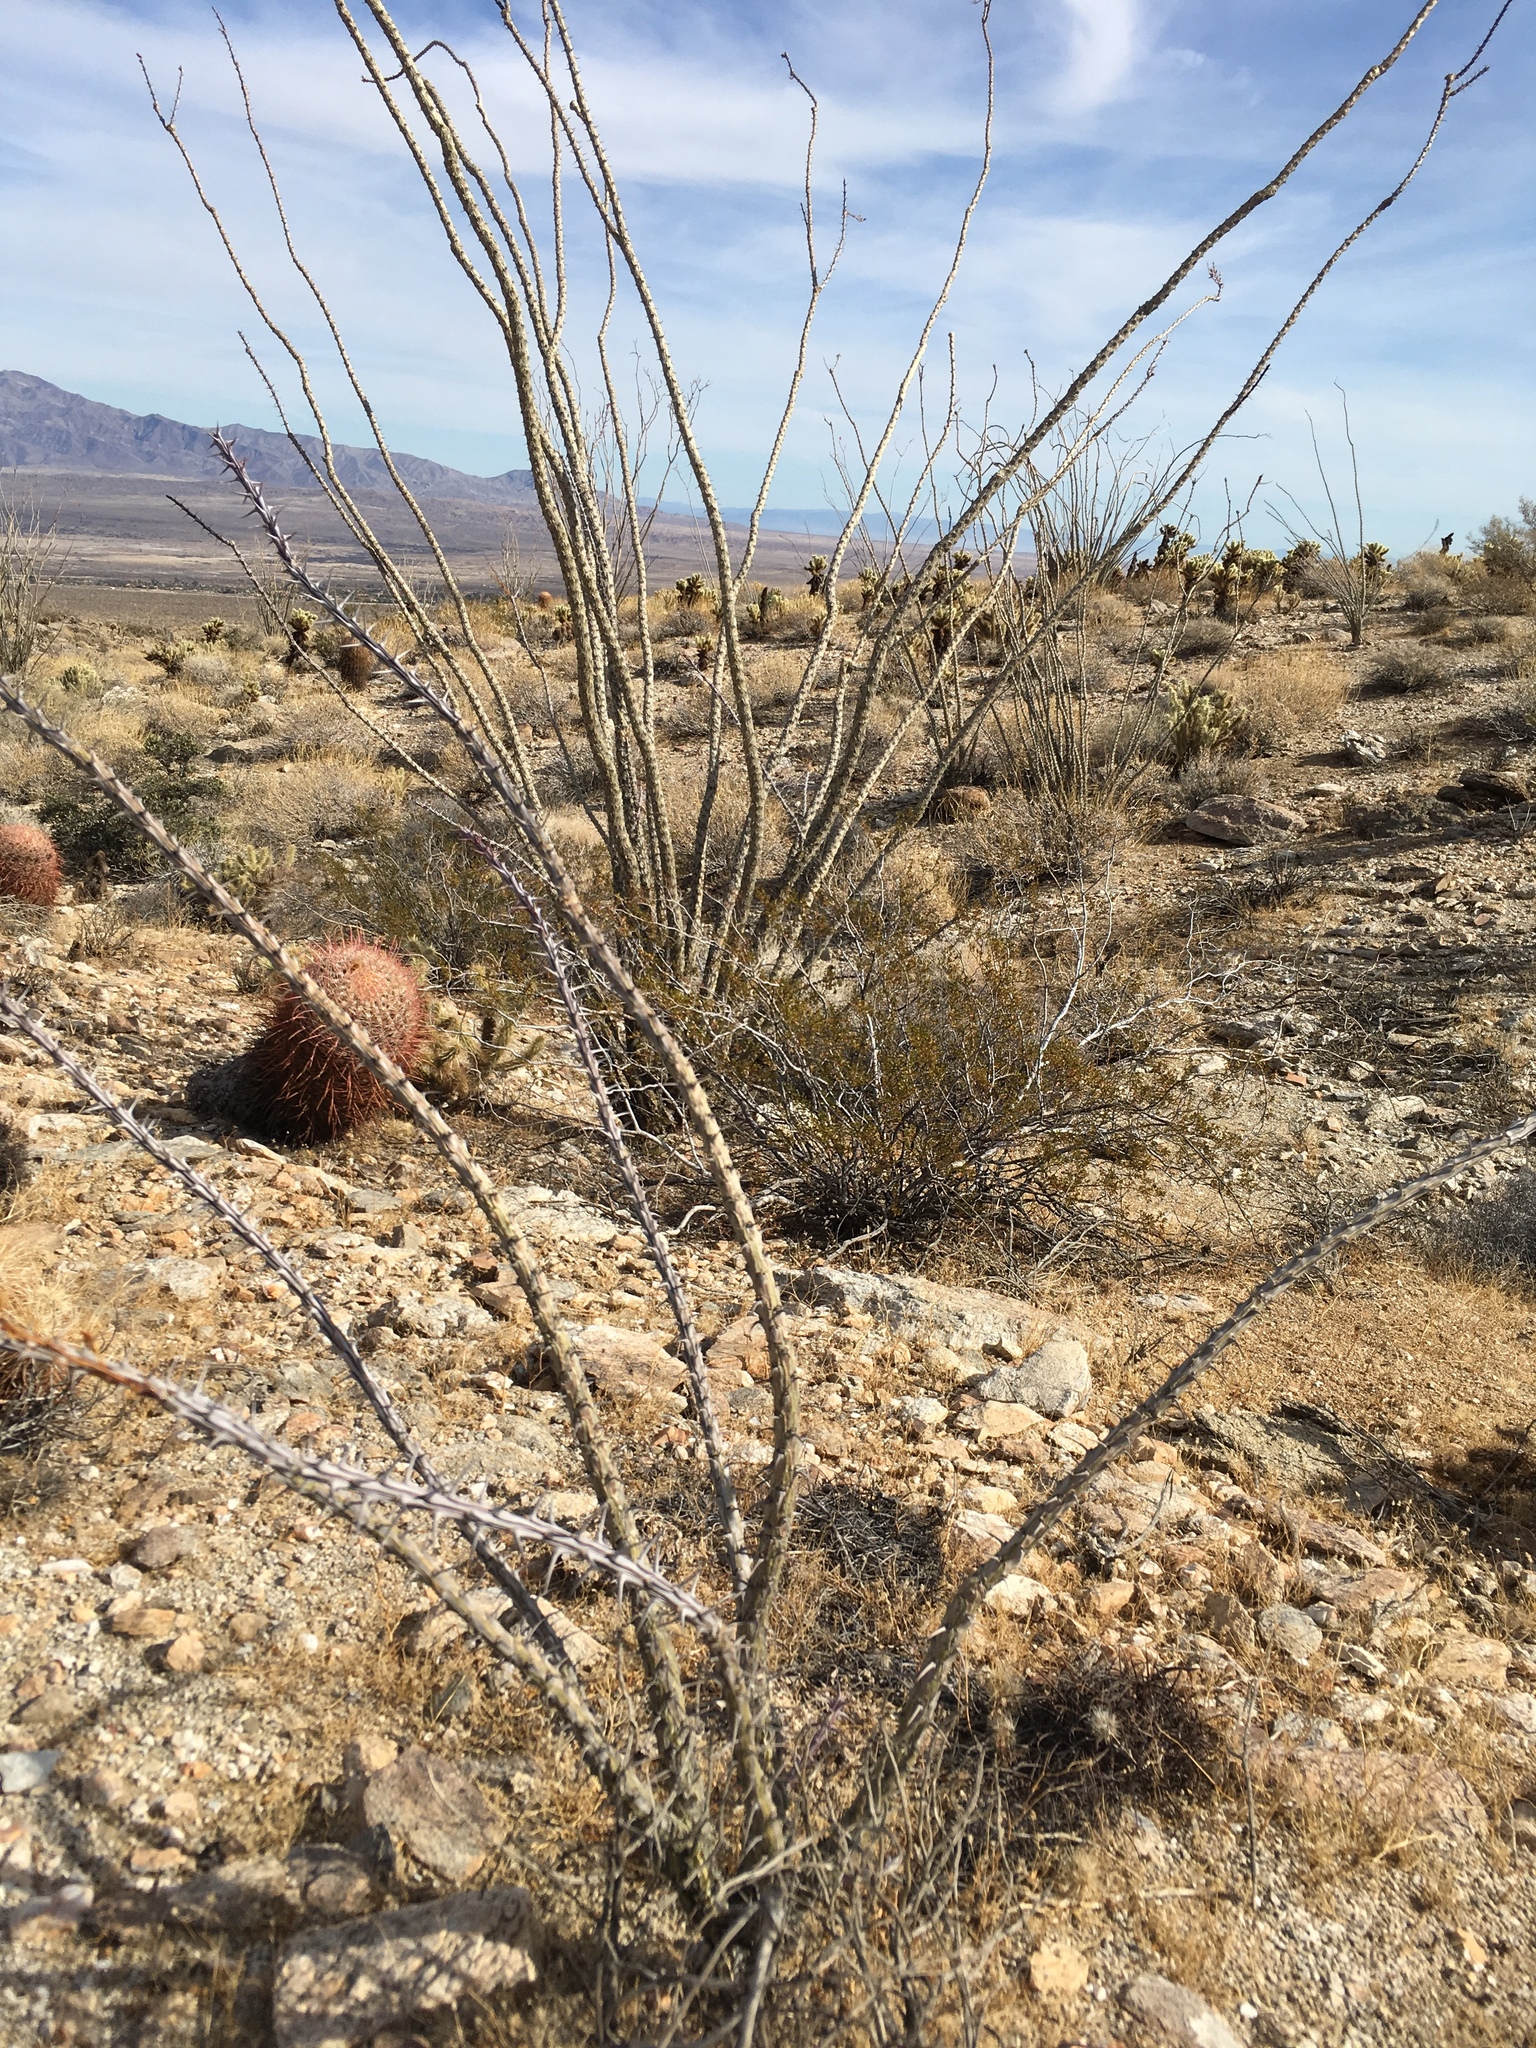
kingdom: Plantae
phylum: Tracheophyta
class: Magnoliopsida
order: Ericales
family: Fouquieriaceae
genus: Fouquieria
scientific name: Fouquieria splendens
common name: Vine-cactus
